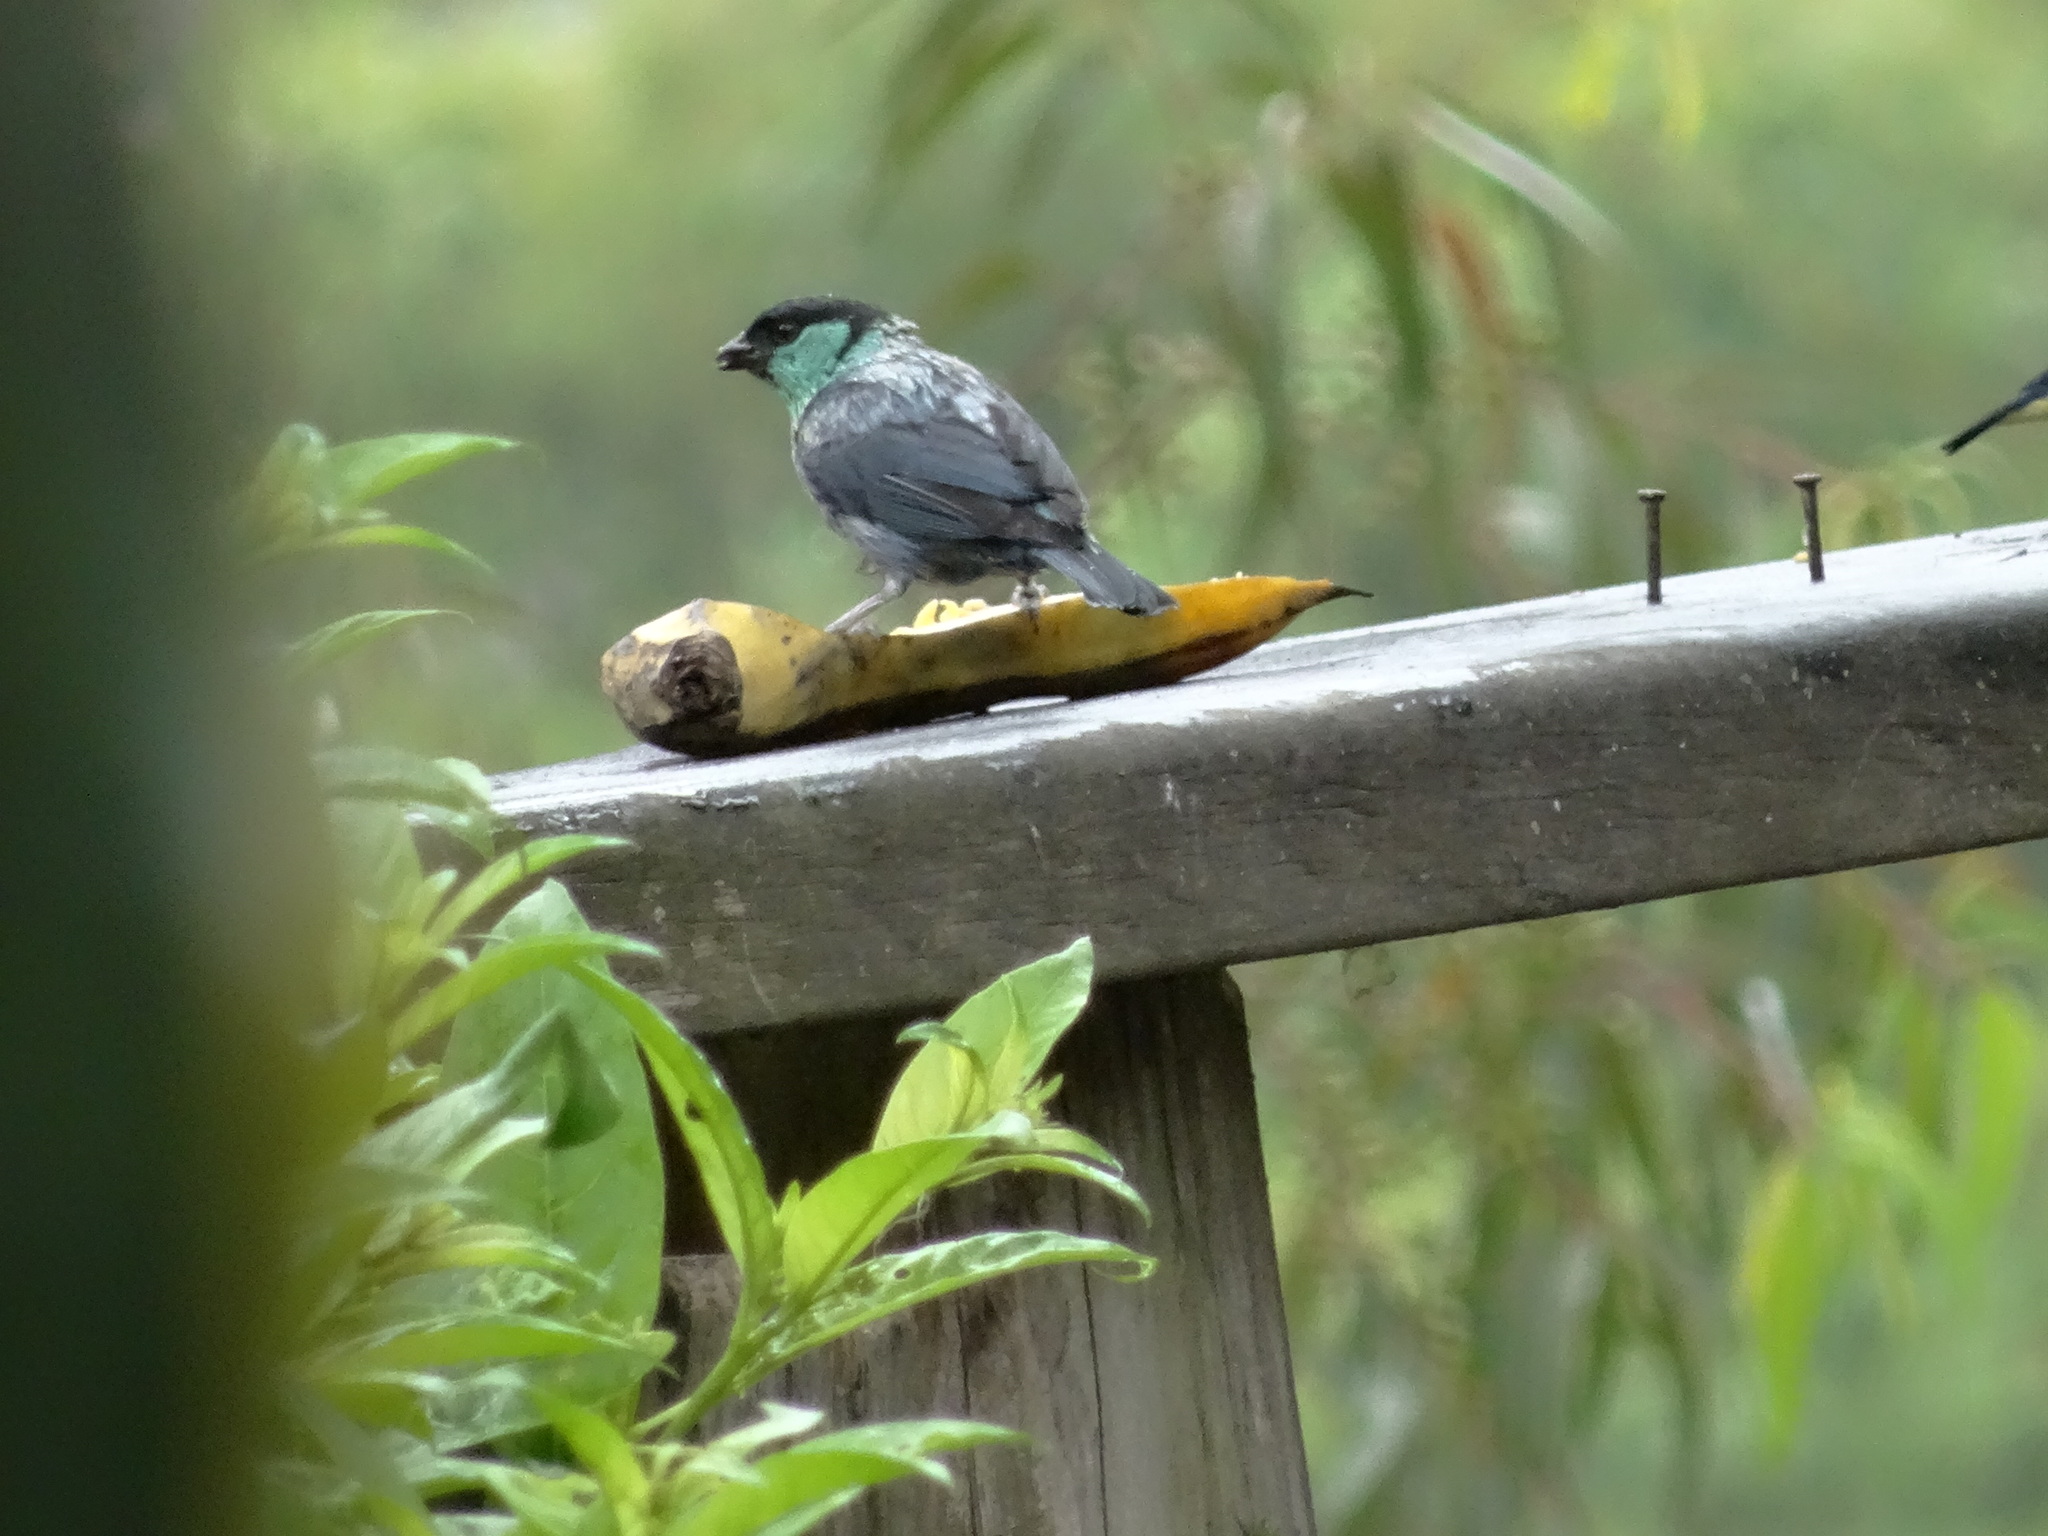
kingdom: Animalia
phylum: Chordata
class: Aves
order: Passeriformes
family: Thraupidae
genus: Stilpnia
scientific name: Stilpnia heinei
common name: Black-capped tanager
